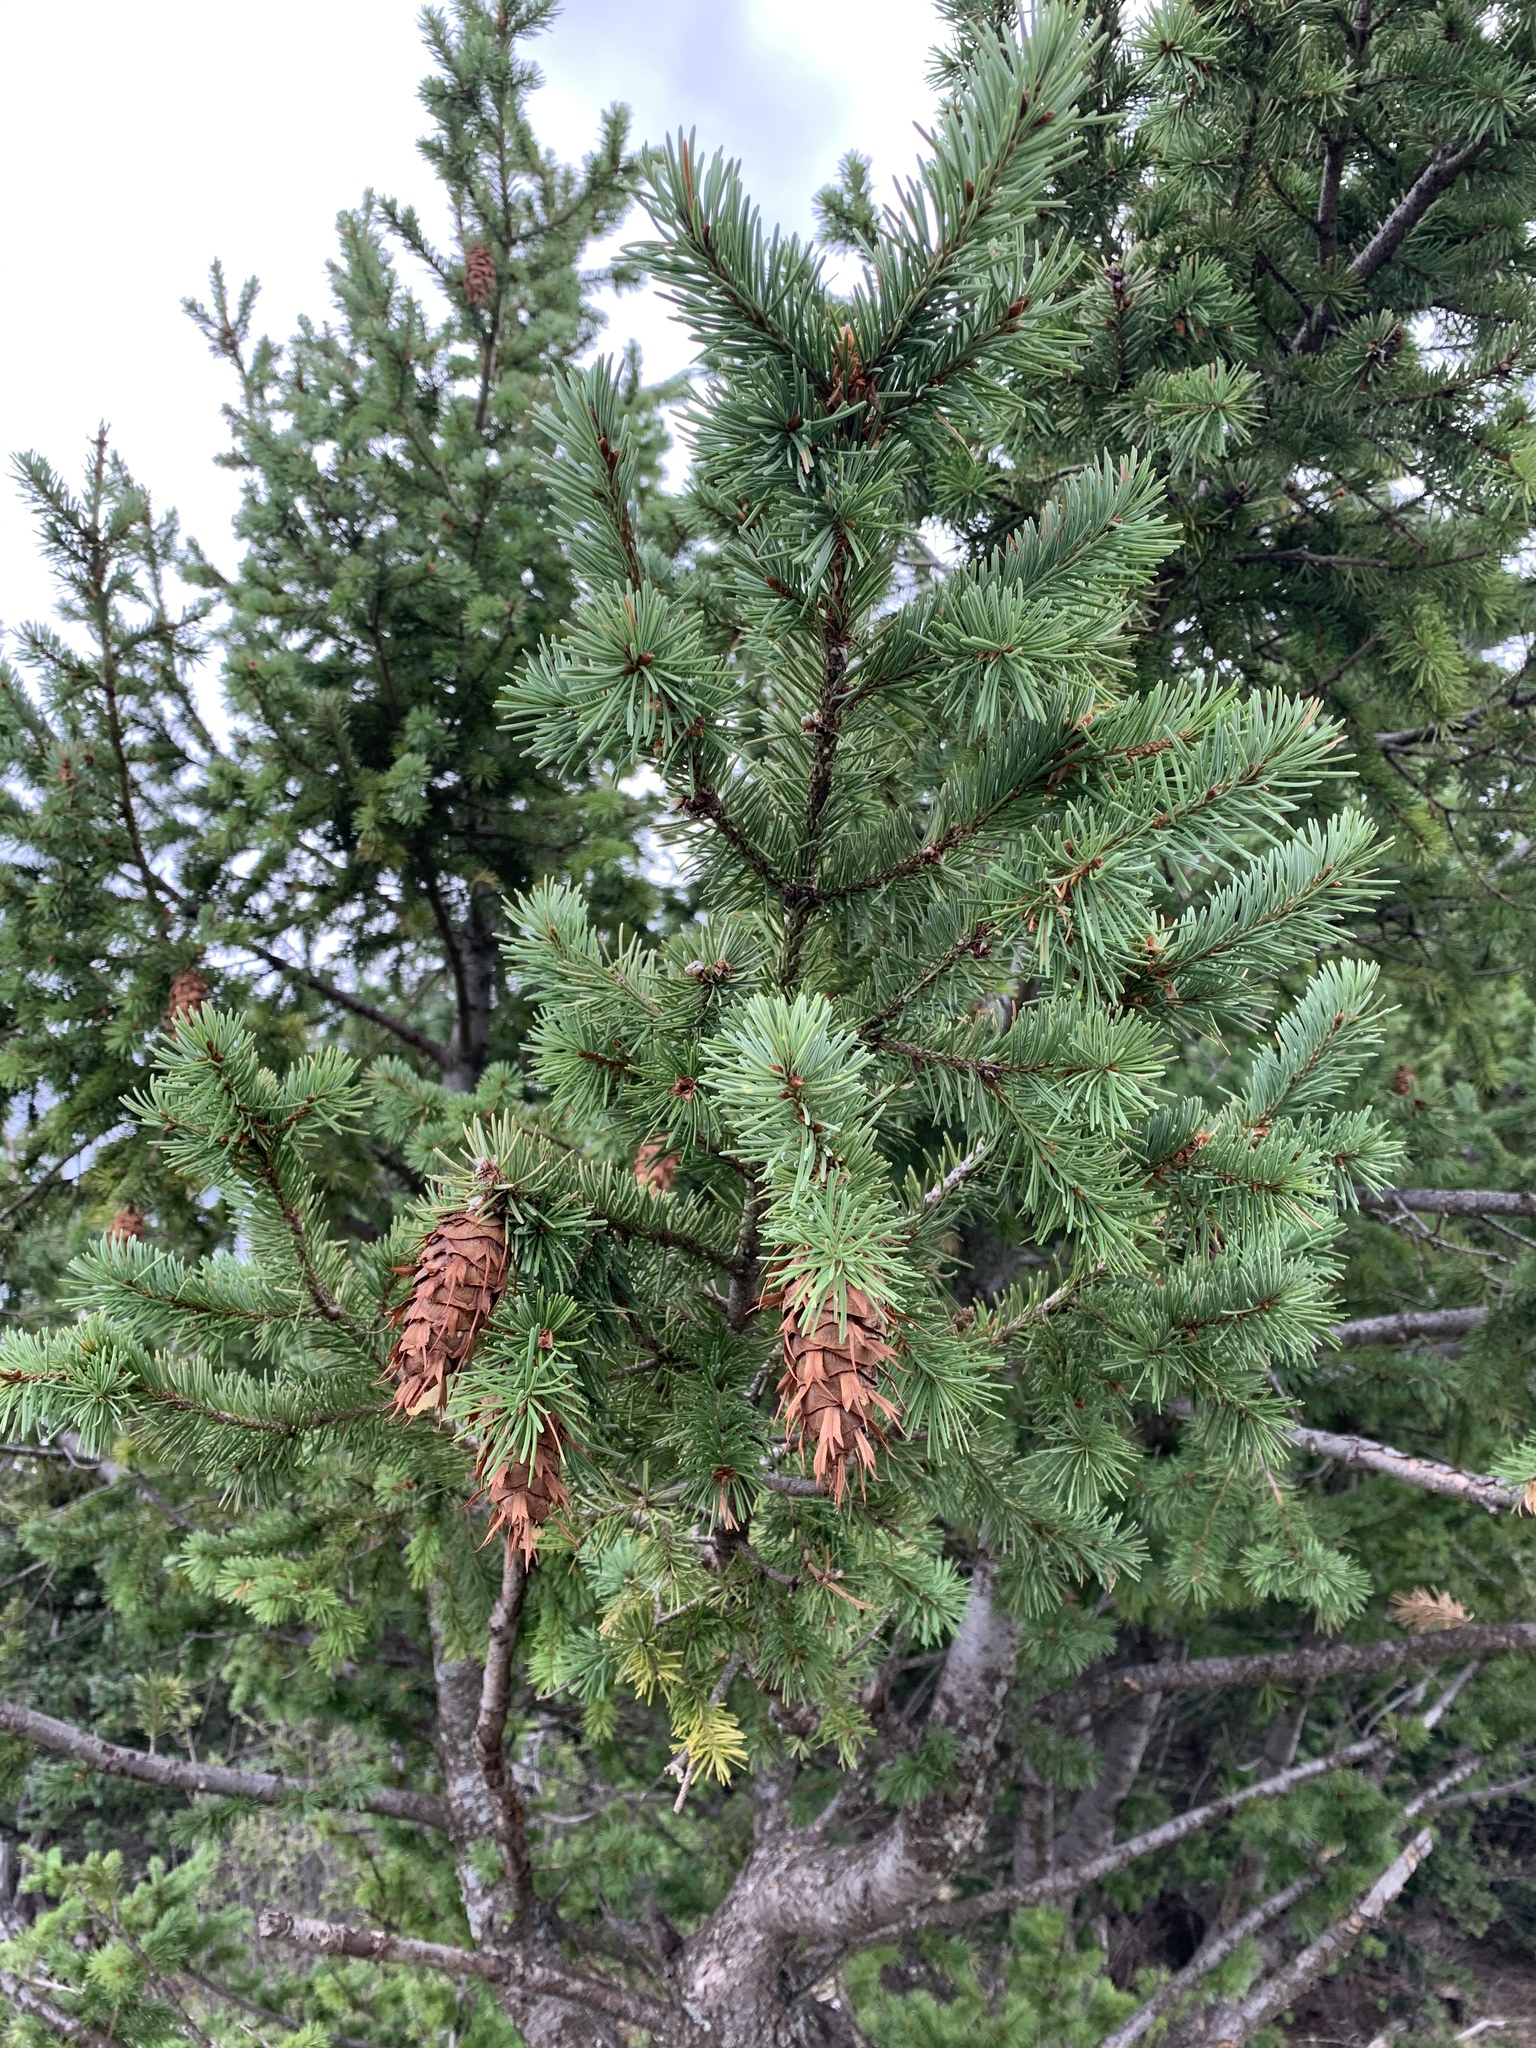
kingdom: Plantae
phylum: Tracheophyta
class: Pinopsida
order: Pinales
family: Pinaceae
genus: Pseudotsuga
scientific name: Pseudotsuga menziesii
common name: Douglas fir
